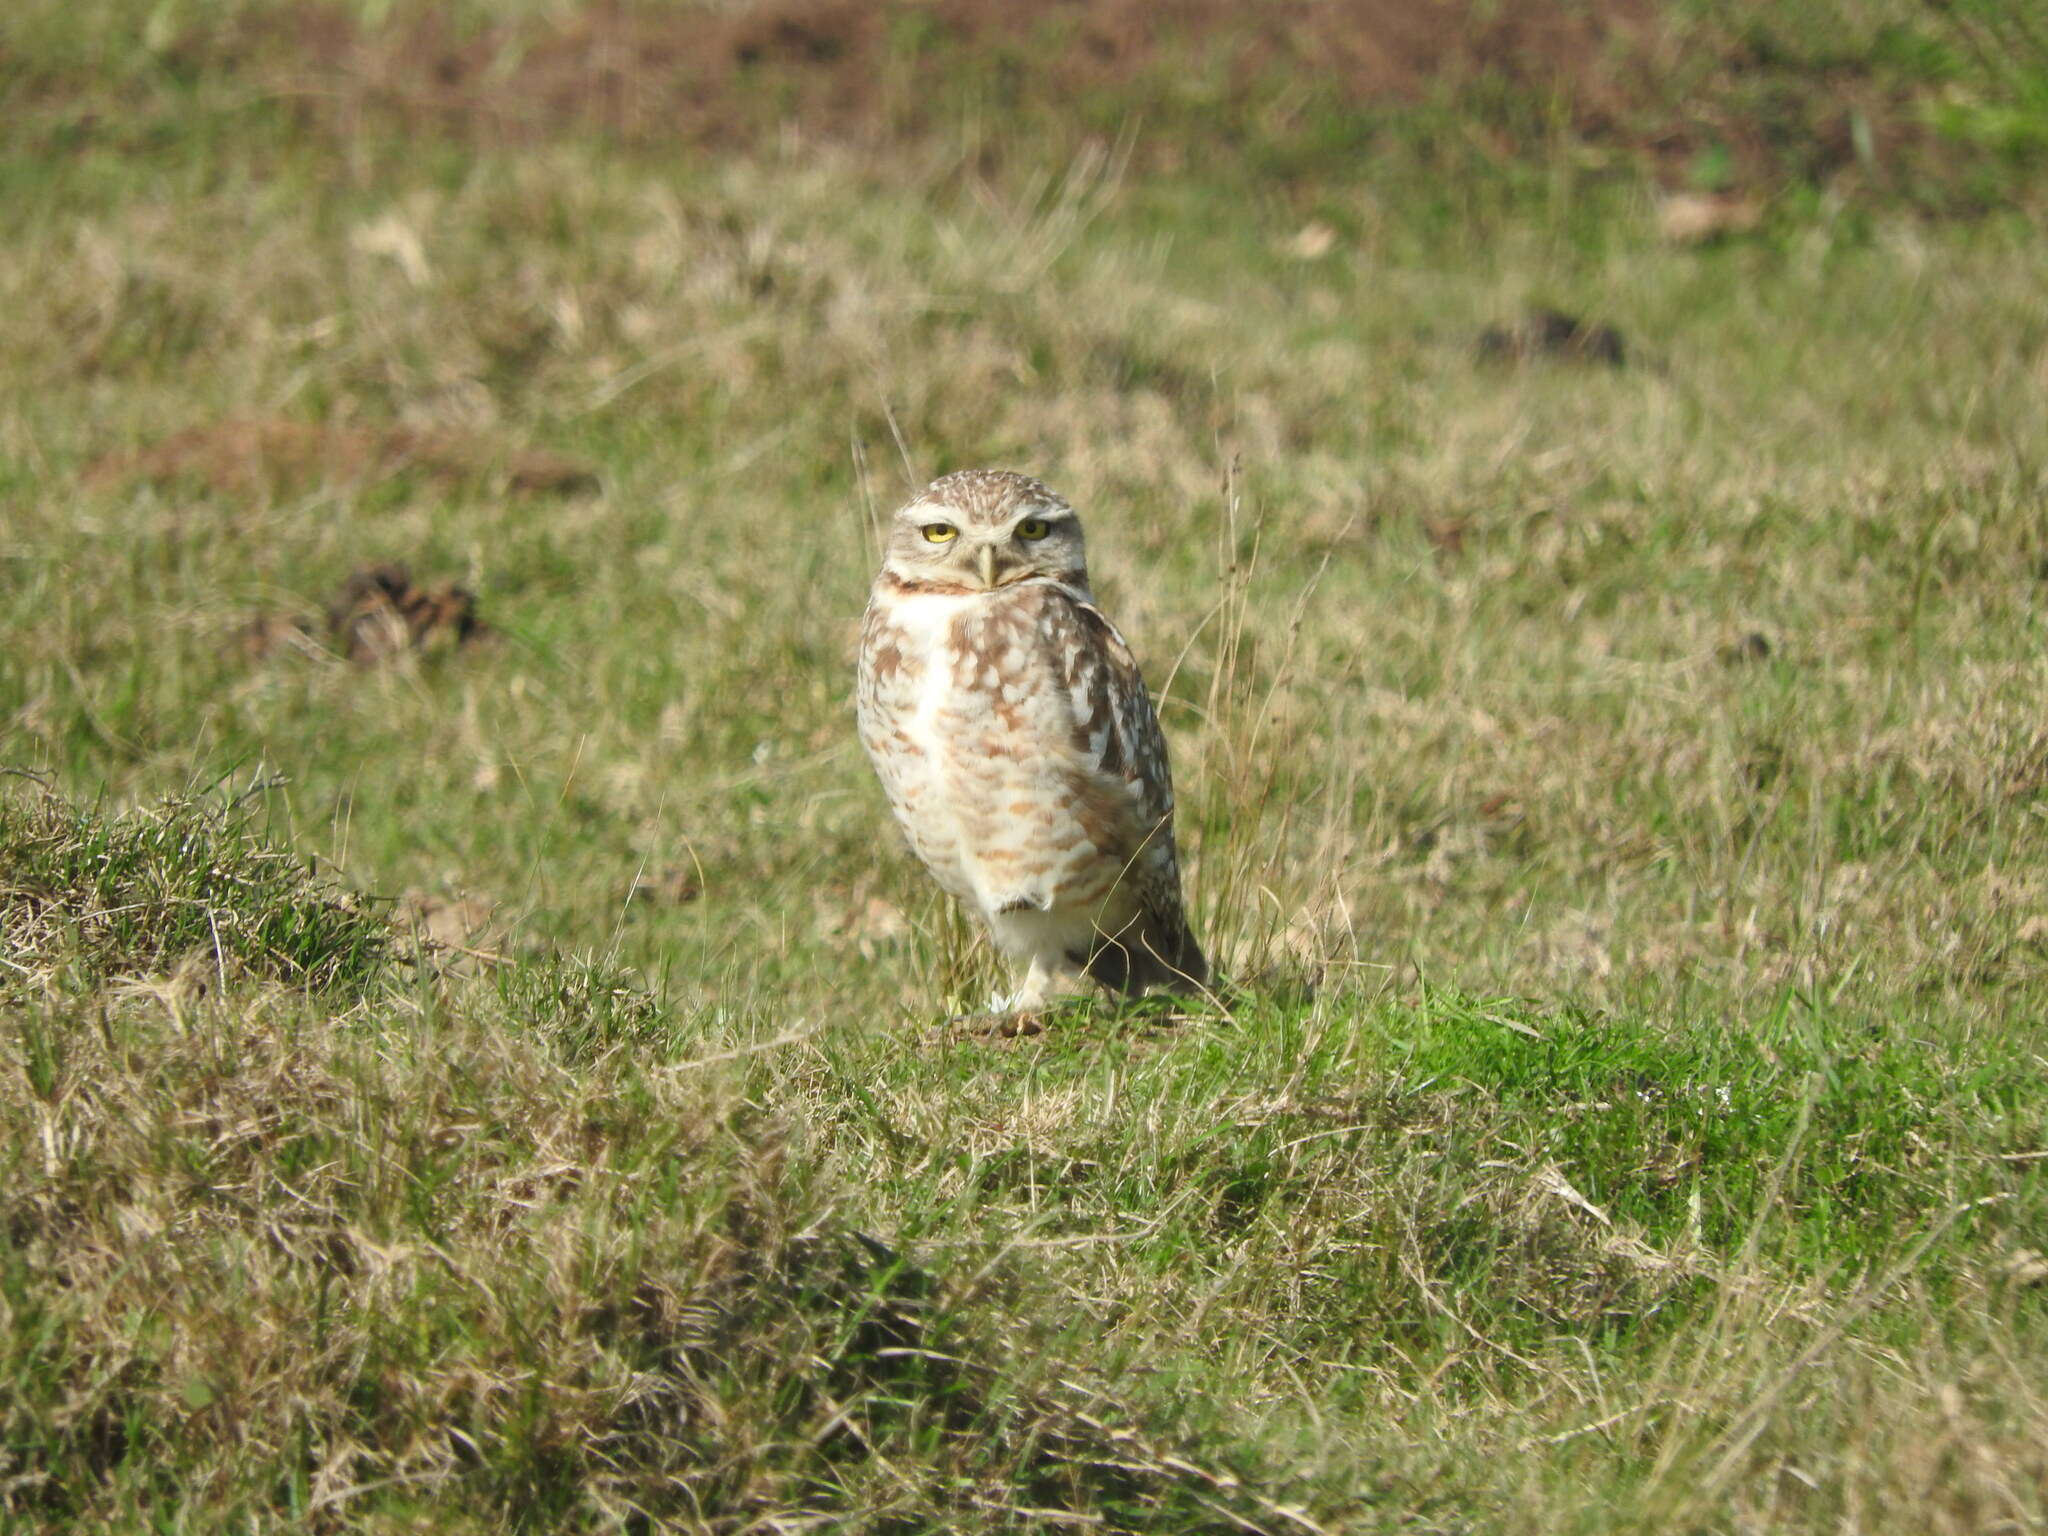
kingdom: Animalia
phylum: Chordata
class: Aves
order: Strigiformes
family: Strigidae
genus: Athene
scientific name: Athene cunicularia
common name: Burrowing owl
